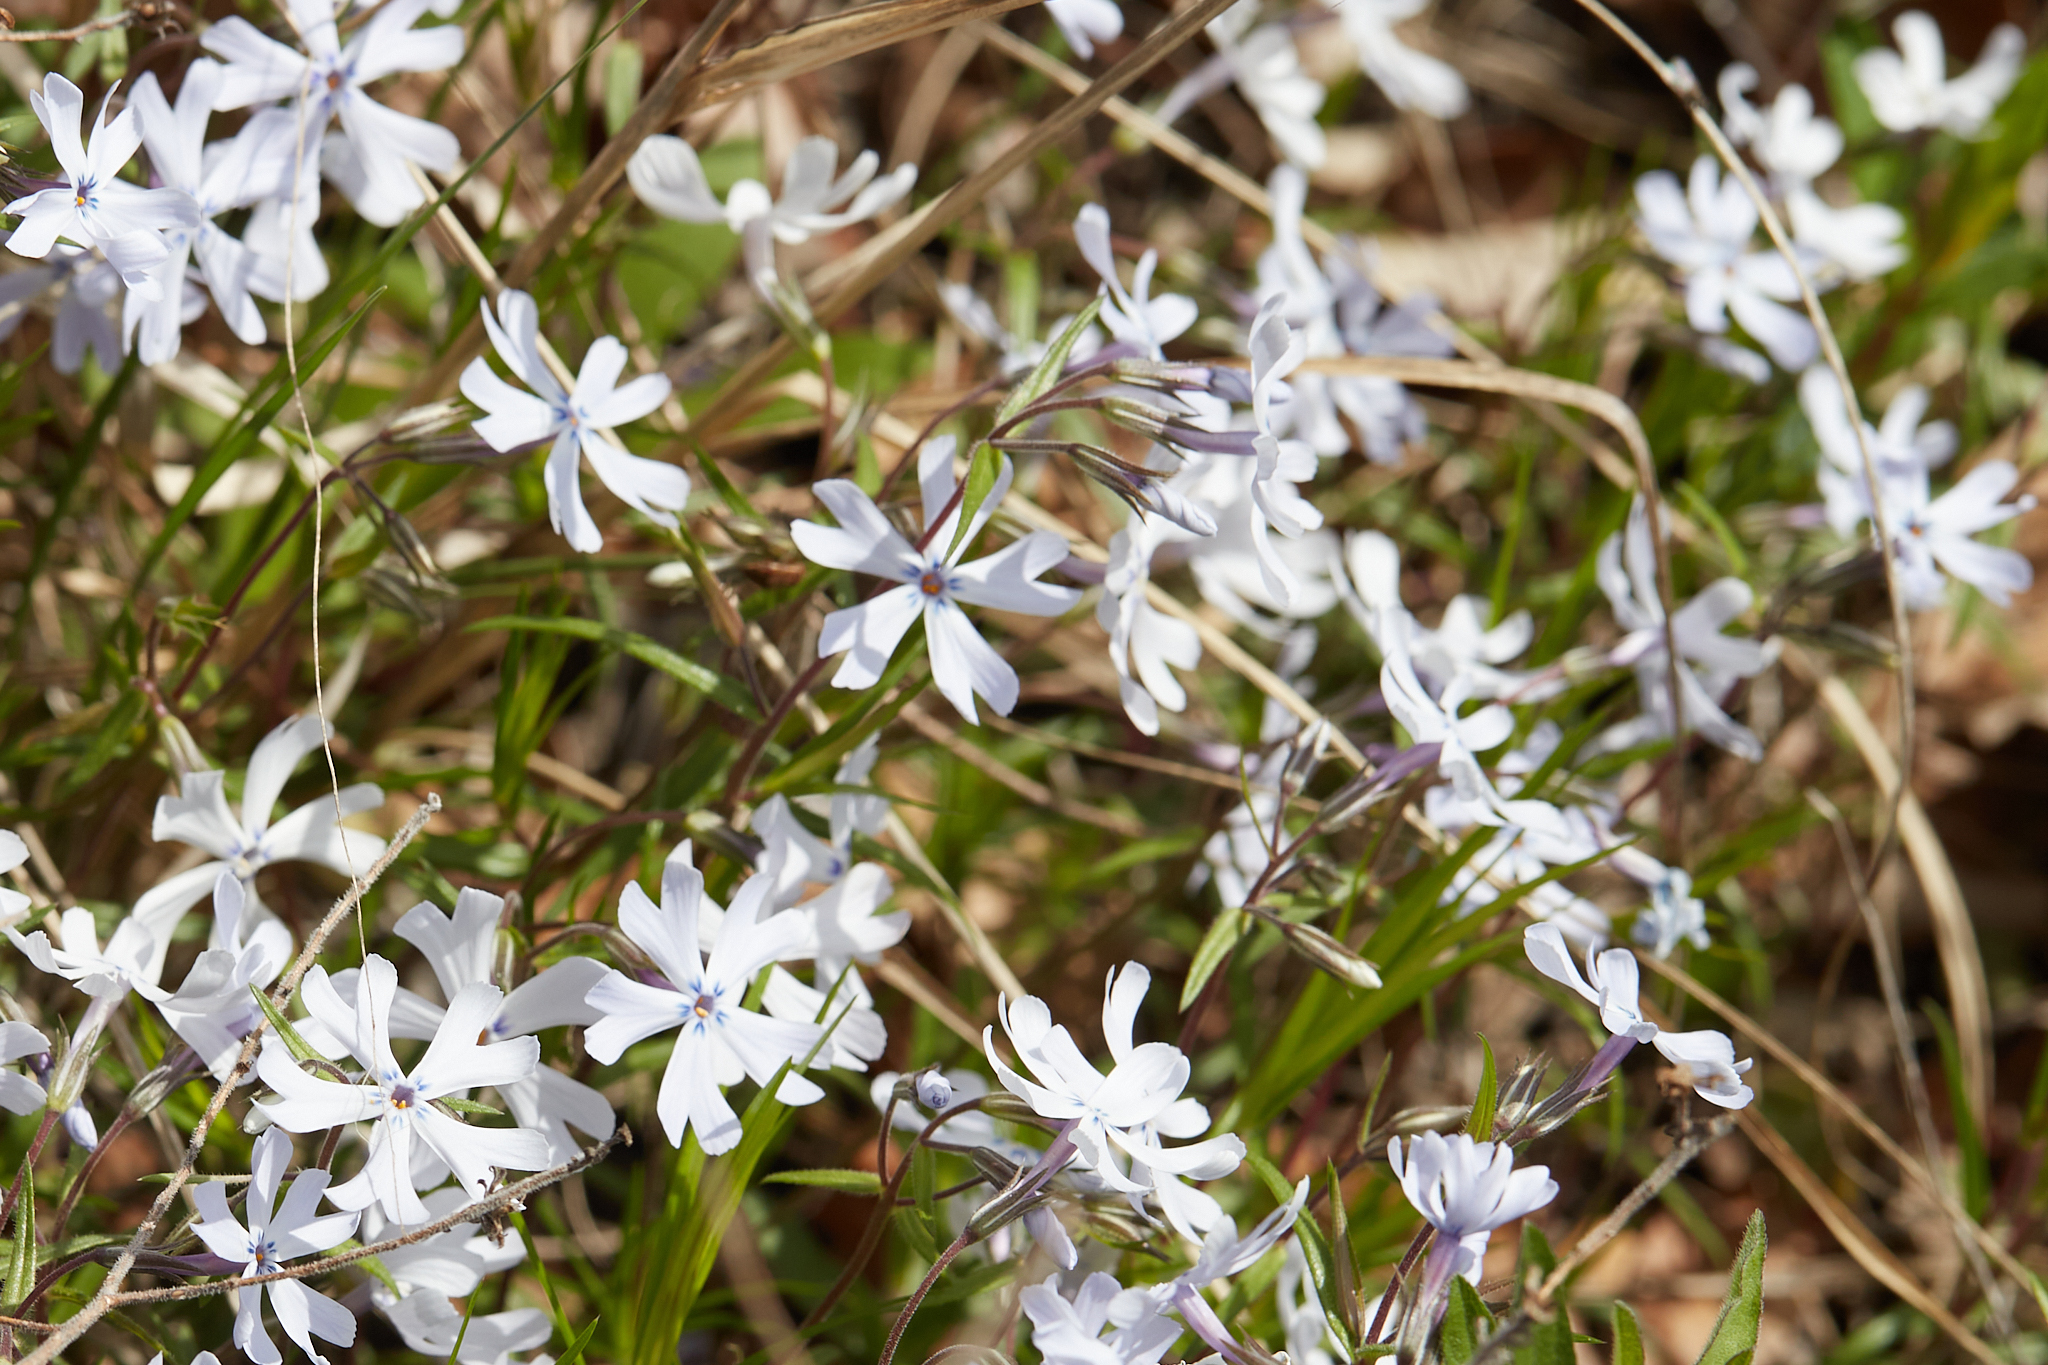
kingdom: Plantae
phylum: Tracheophyta
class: Magnoliopsida
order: Ericales
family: Polemoniaceae
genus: Phlox
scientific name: Phlox bifida
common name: Sand phlox
